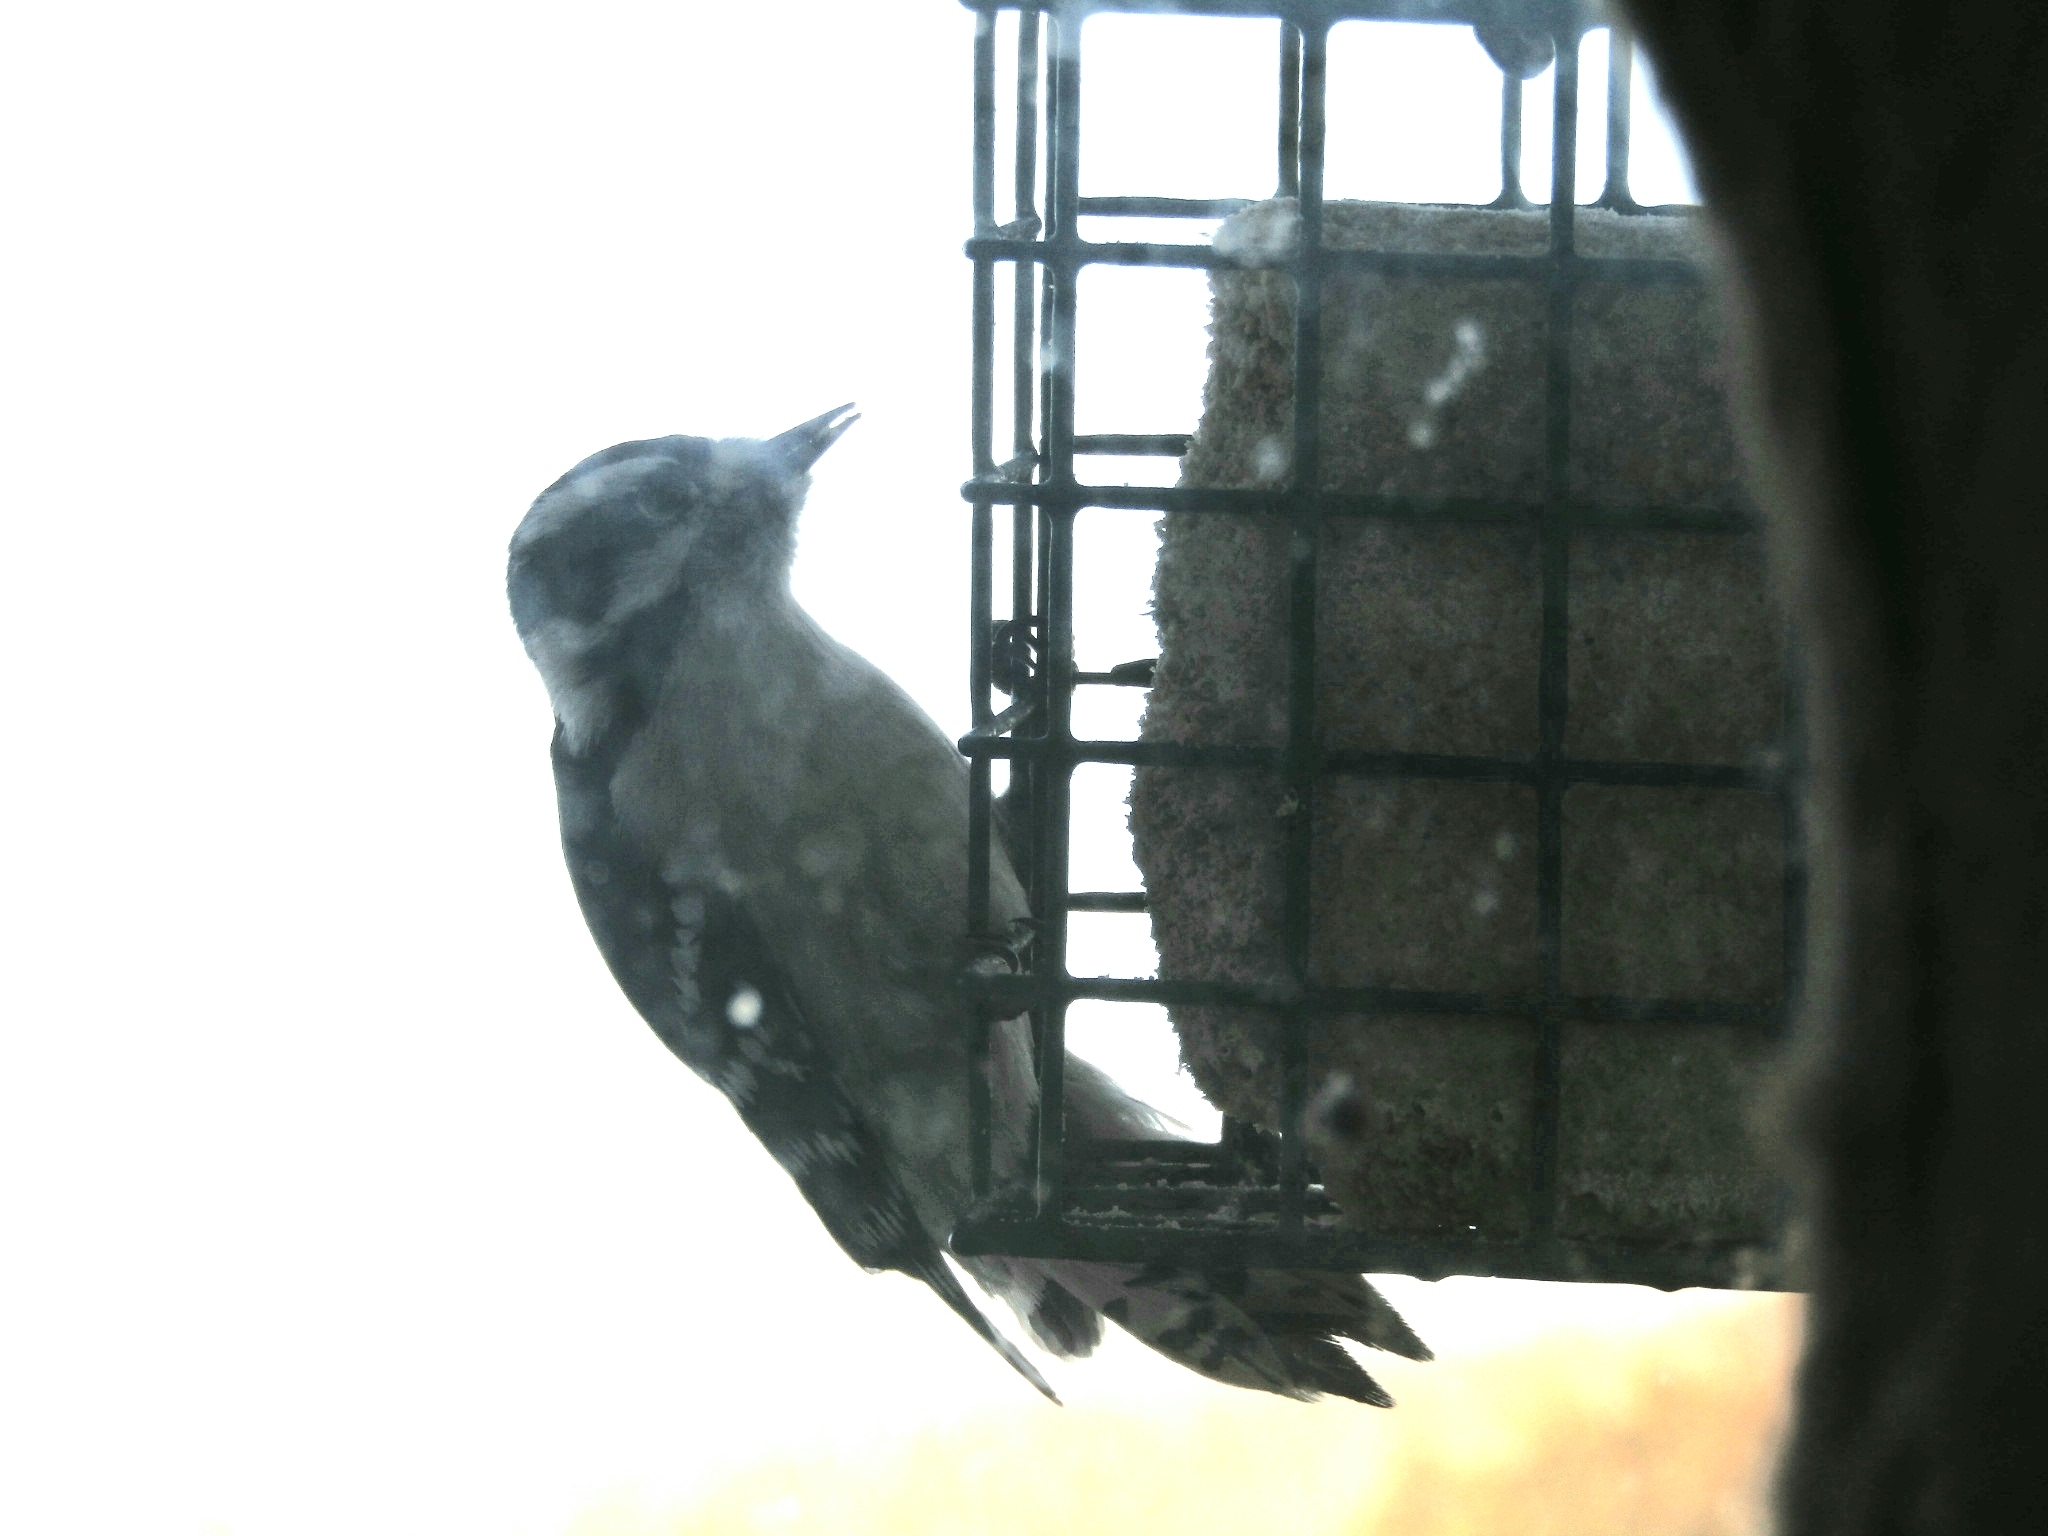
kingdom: Animalia
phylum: Chordata
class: Aves
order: Piciformes
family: Picidae
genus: Dryobates
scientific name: Dryobates pubescens
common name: Downy woodpecker
